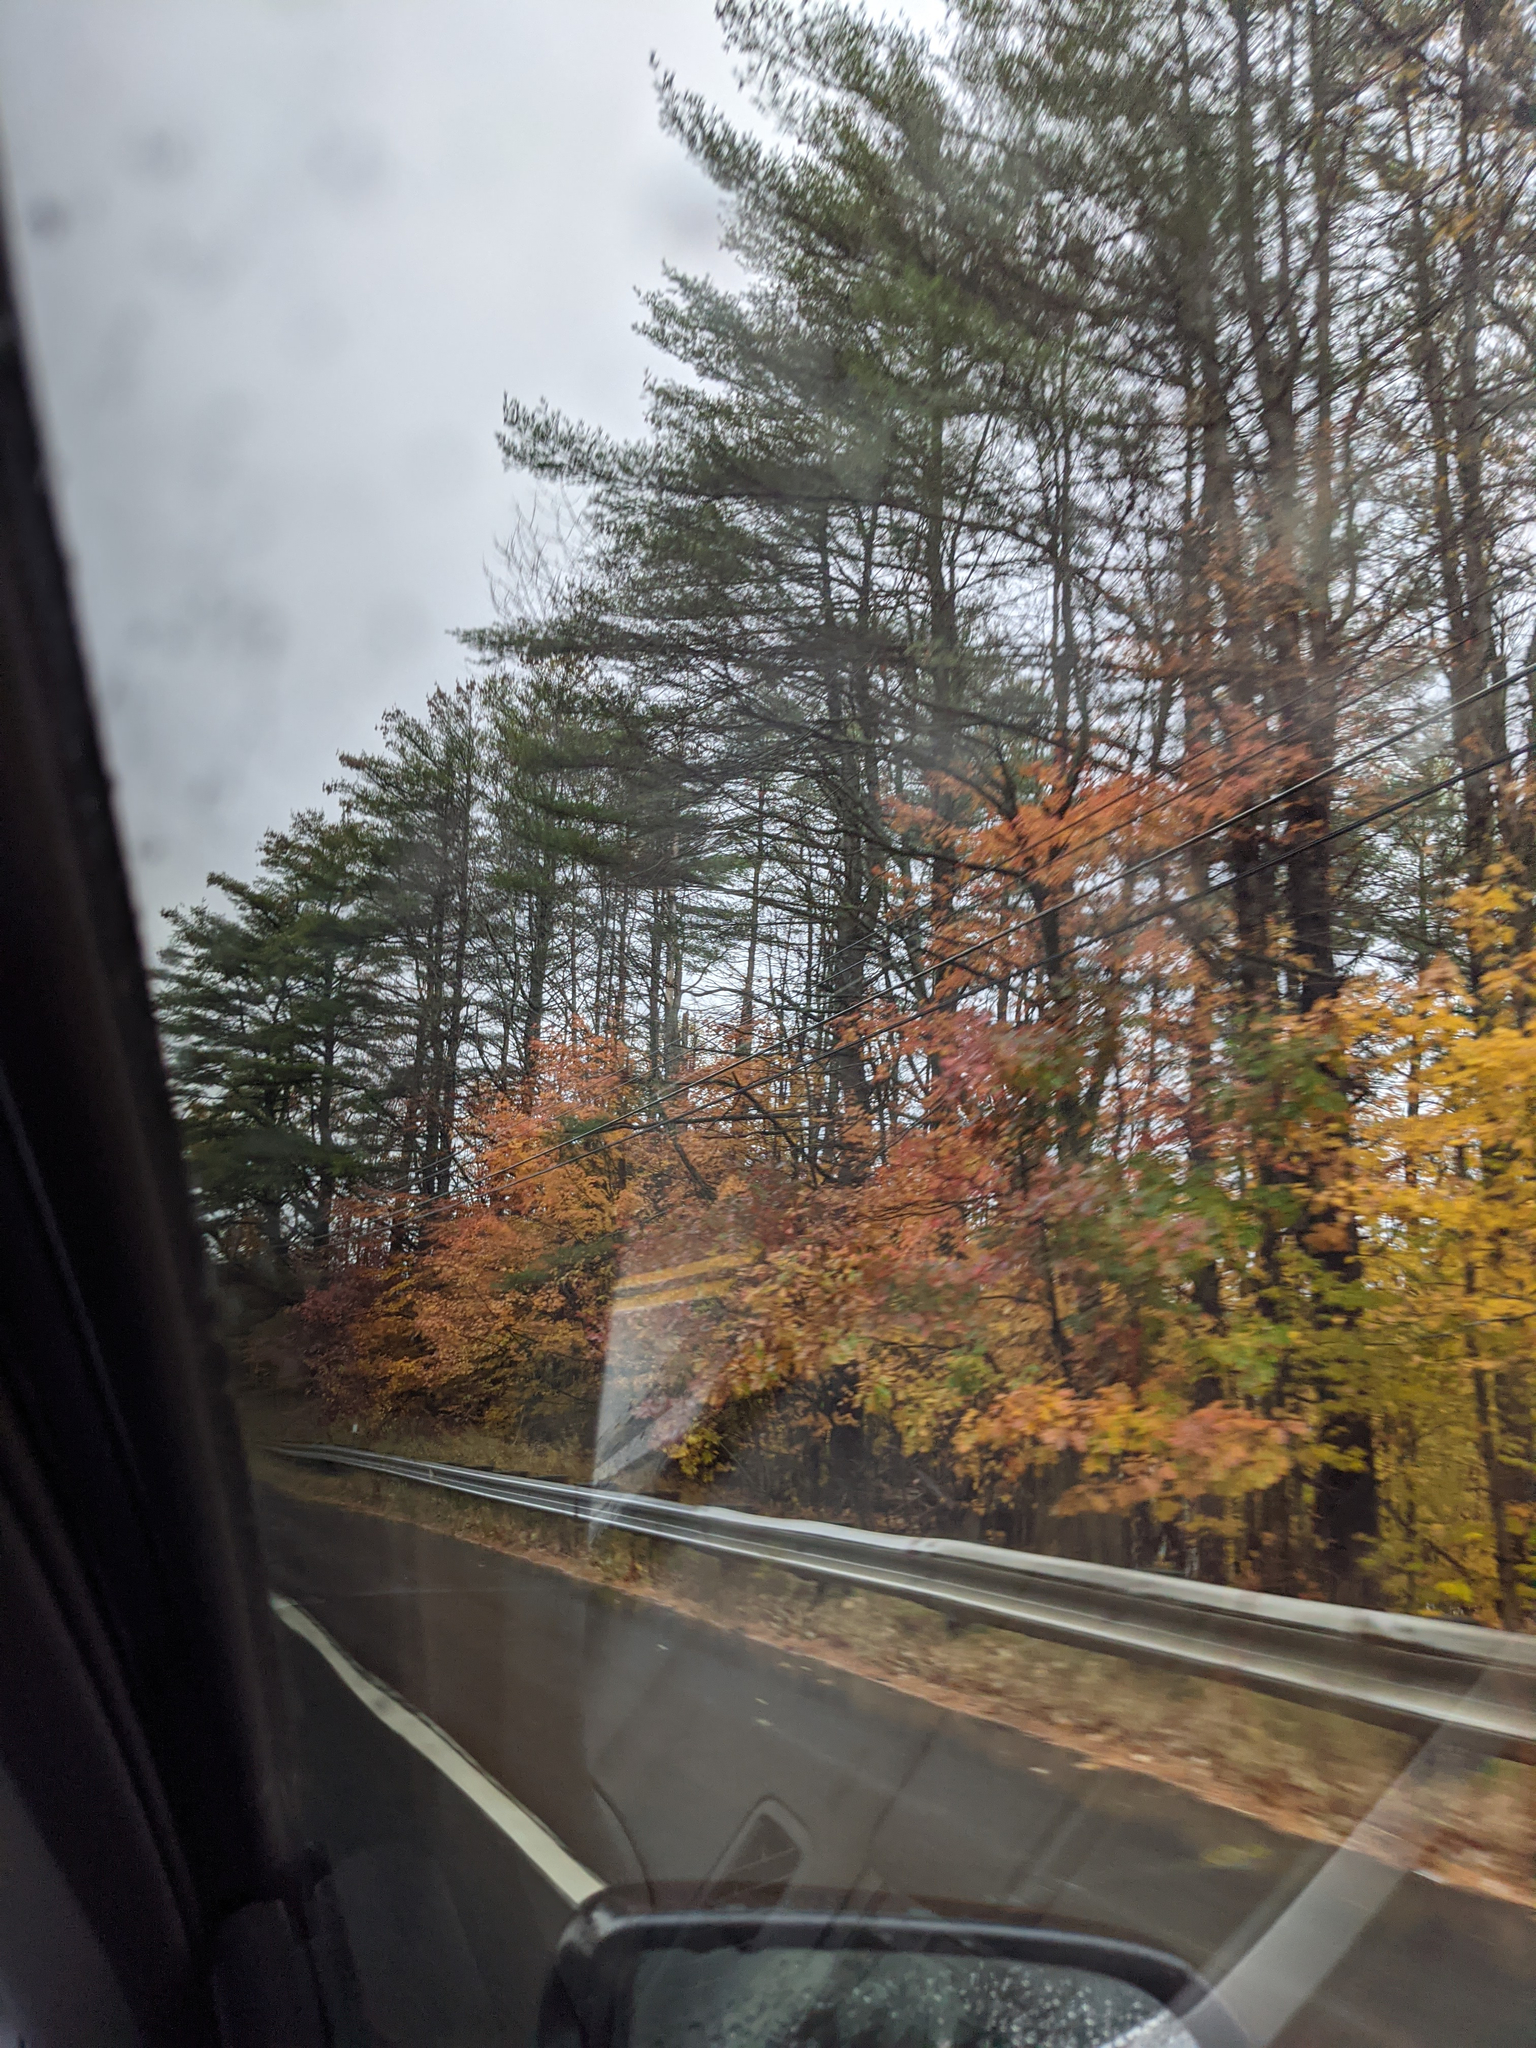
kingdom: Plantae
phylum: Tracheophyta
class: Pinopsida
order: Pinales
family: Pinaceae
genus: Pinus
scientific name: Pinus strobus
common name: Weymouth pine
